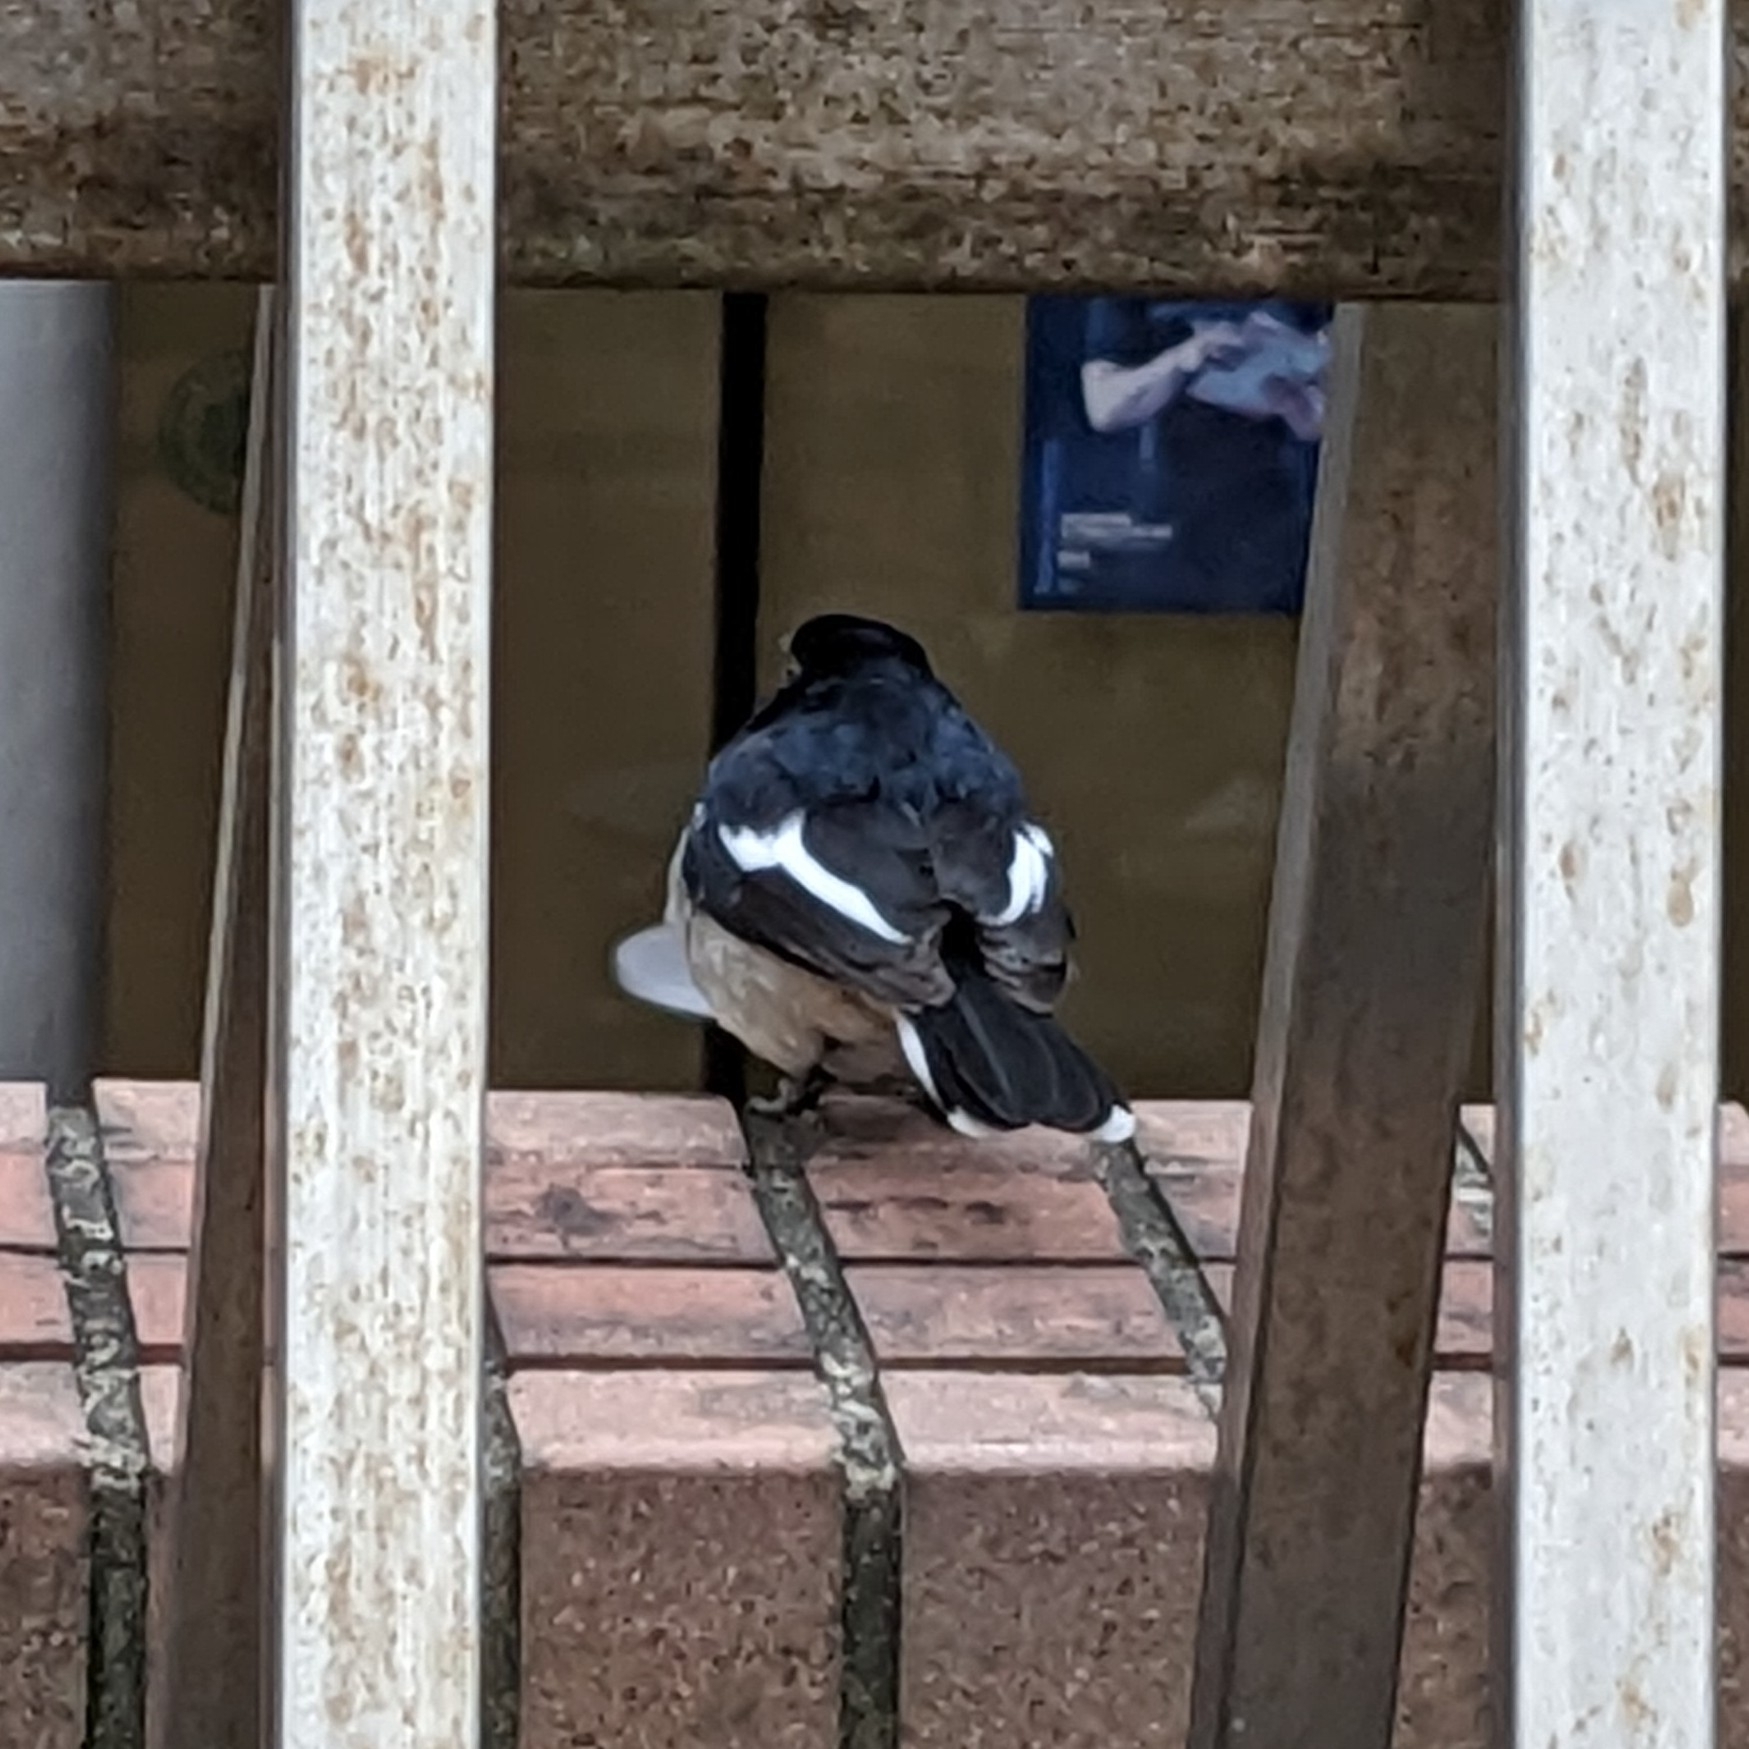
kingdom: Animalia
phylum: Chordata
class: Aves
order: Passeriformes
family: Muscicapidae
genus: Copsychus
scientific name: Copsychus saularis
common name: Oriental magpie-robin
